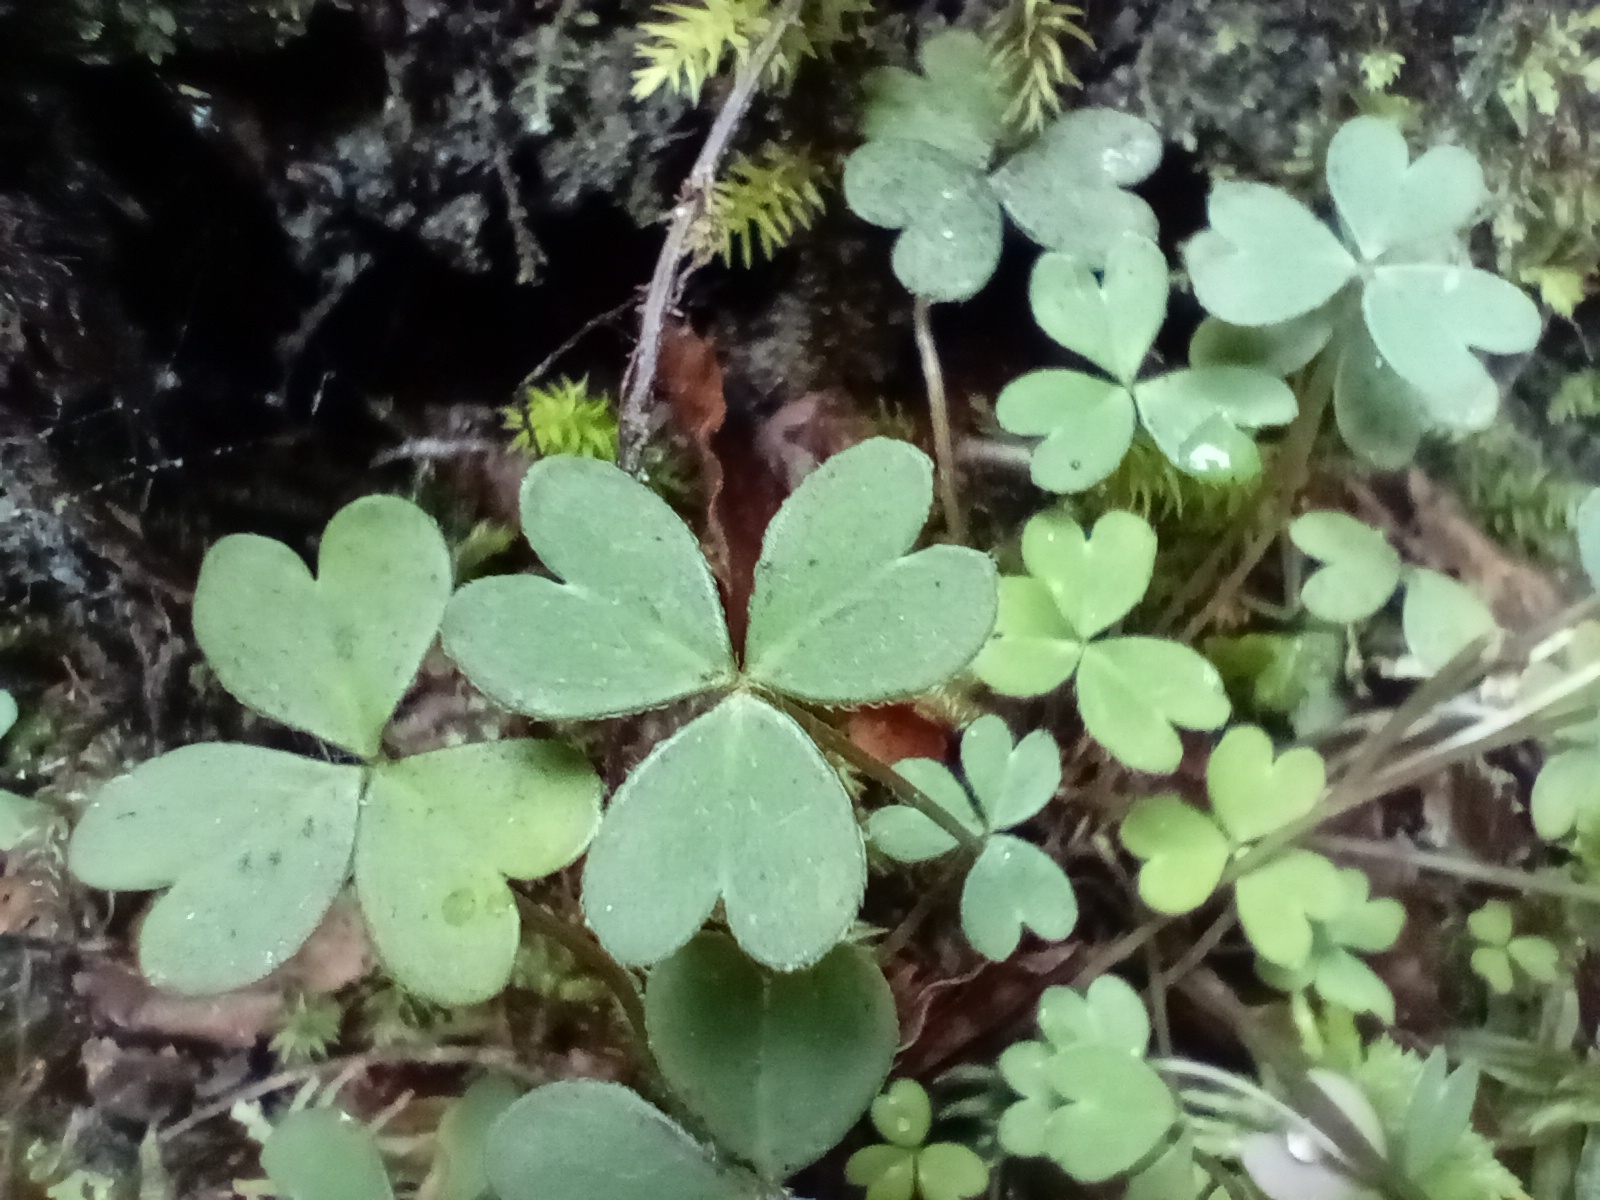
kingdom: Plantae
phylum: Tracheophyta
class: Magnoliopsida
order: Oxalidales
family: Oxalidaceae
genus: Oxalis
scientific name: Oxalis magellanica
